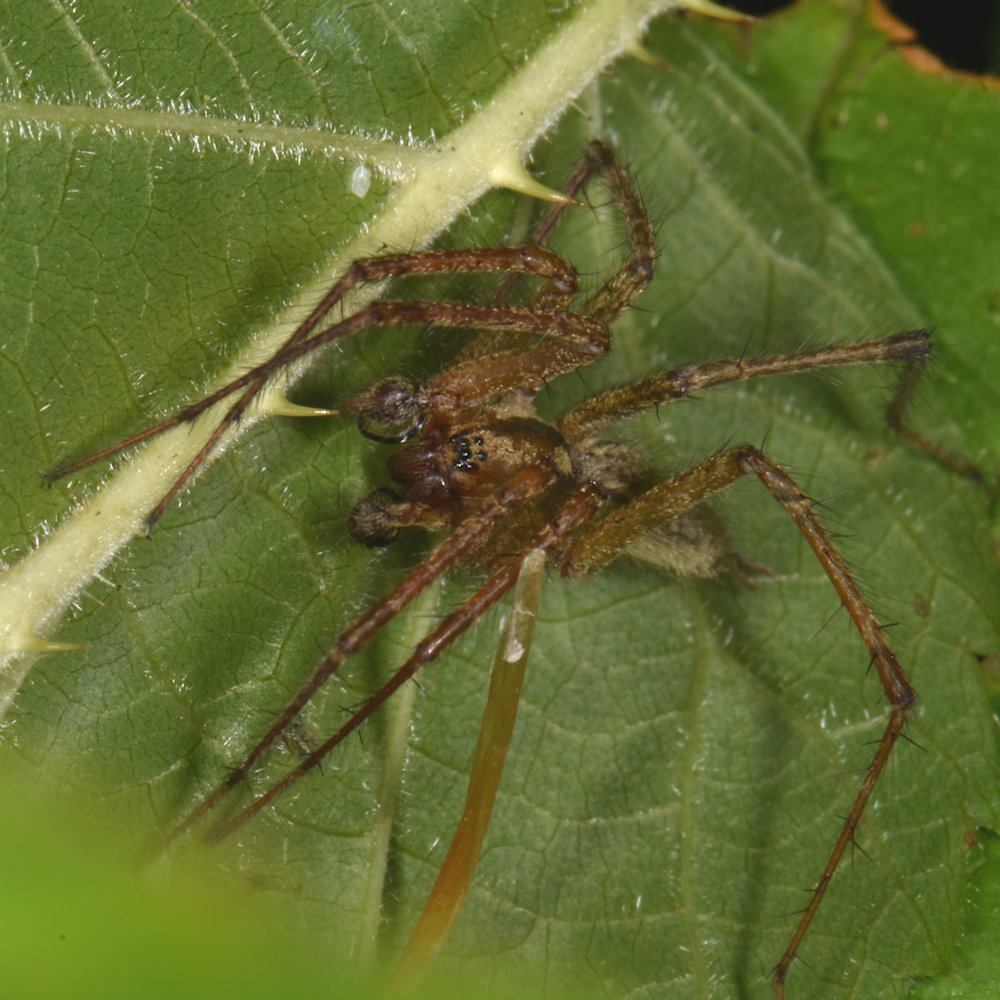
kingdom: Animalia
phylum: Arthropoda
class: Arachnida
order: Araneae
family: Agelenidae
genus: Agelenopsis
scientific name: Agelenopsis
